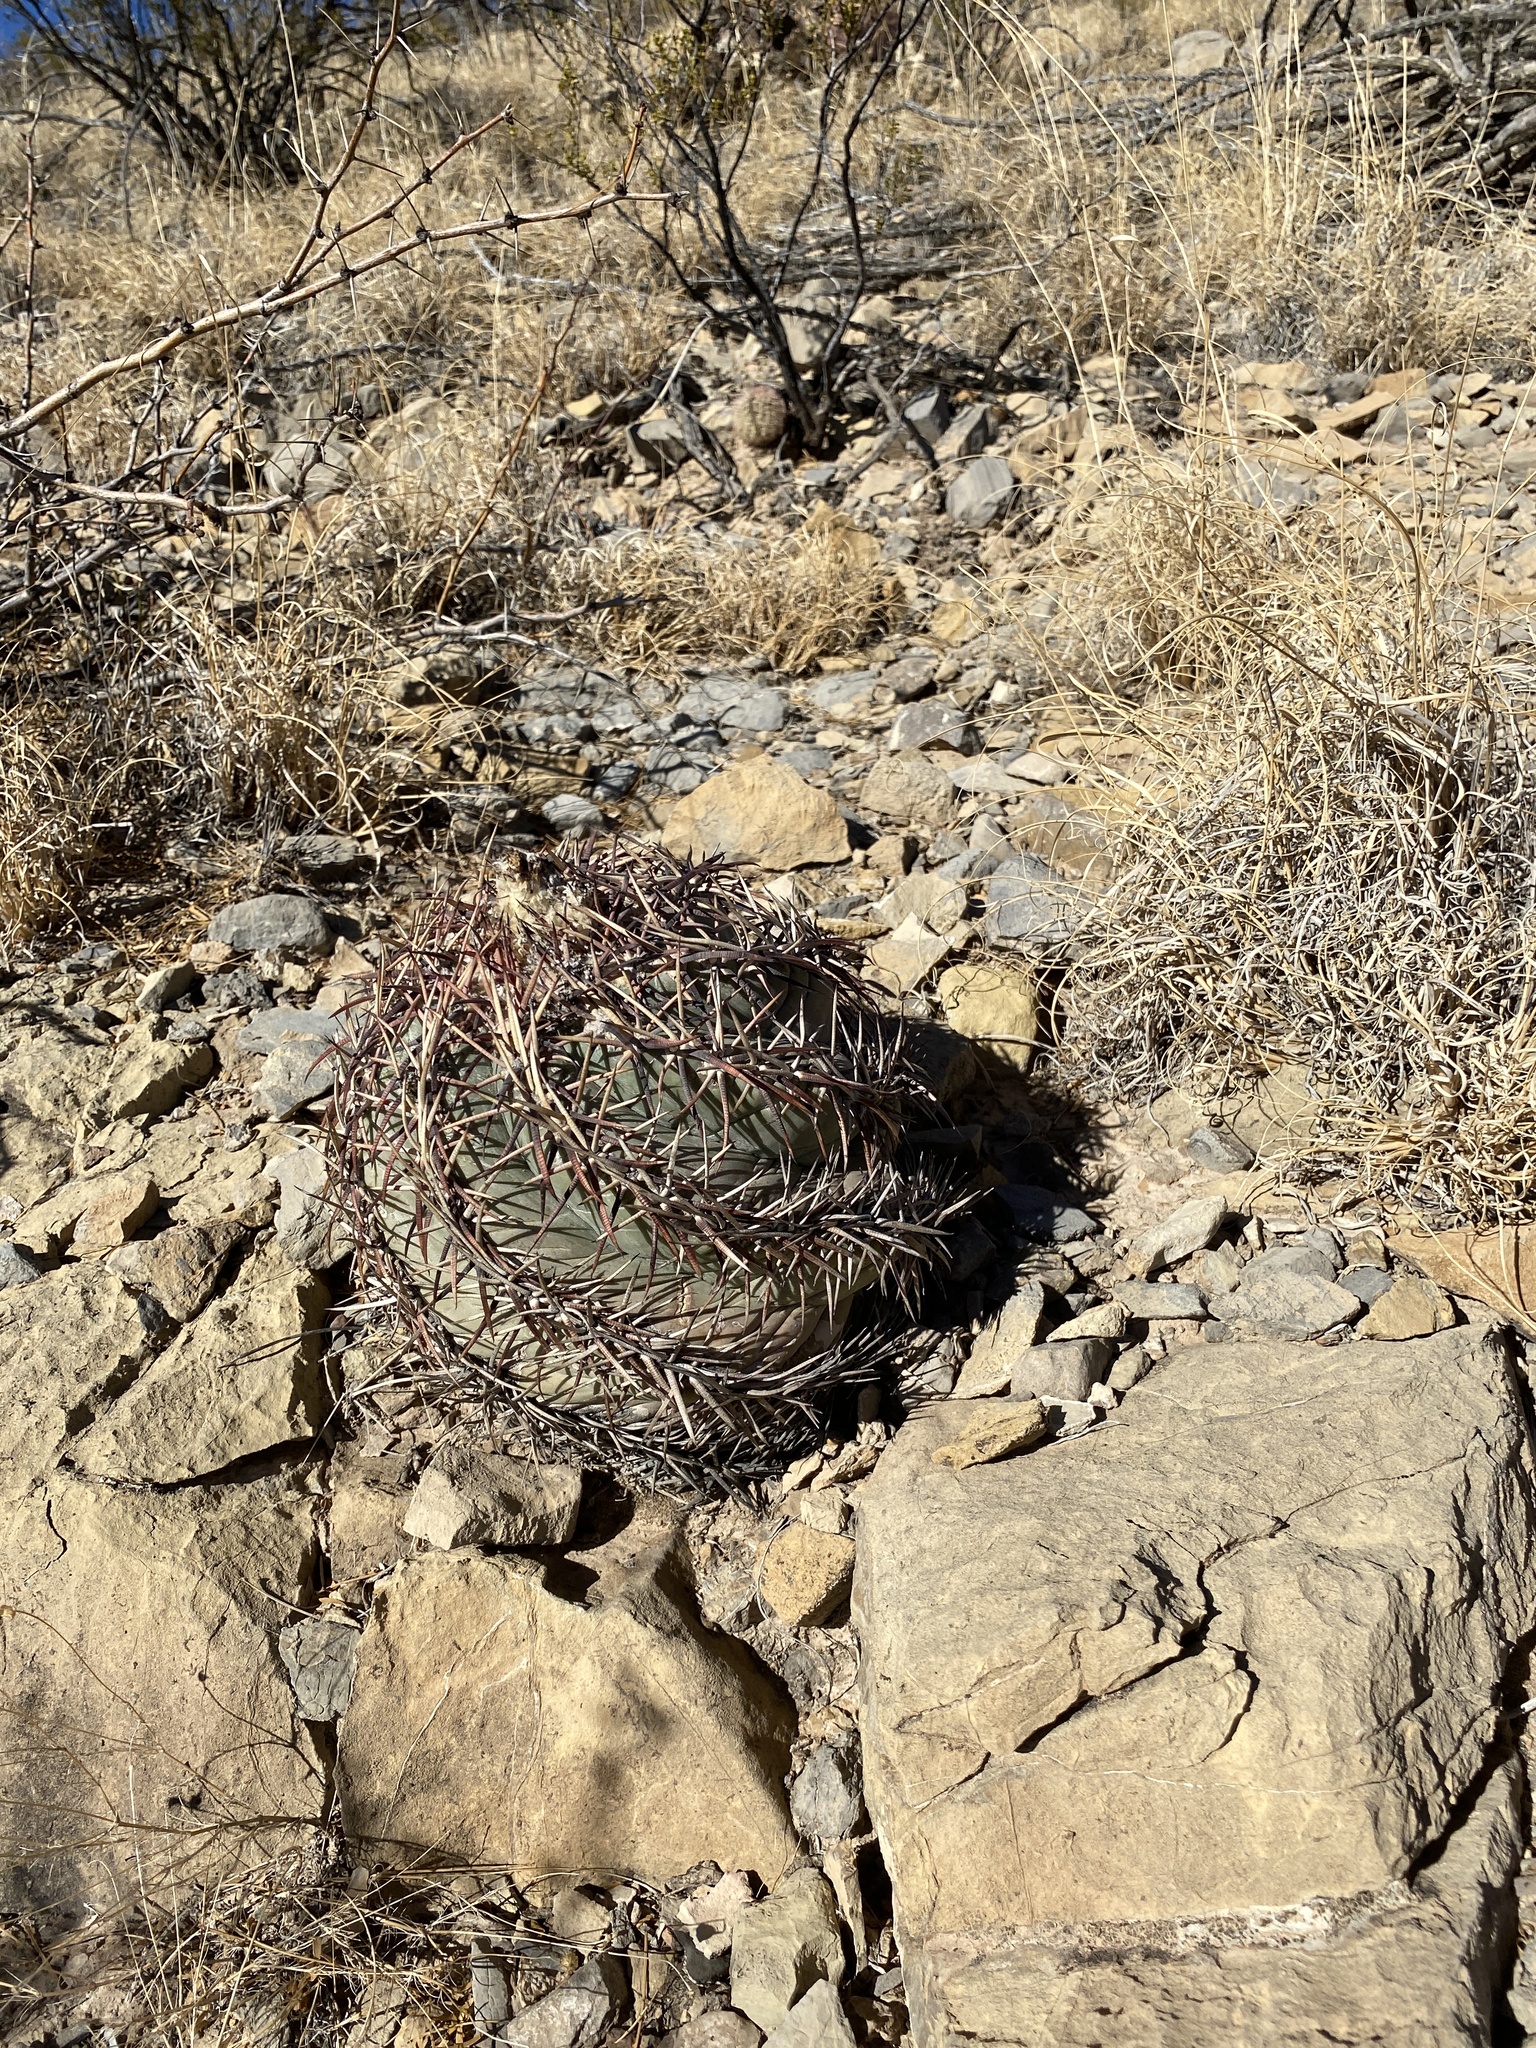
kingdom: Plantae
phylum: Tracheophyta
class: Magnoliopsida
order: Caryophyllales
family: Cactaceae
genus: Echinocactus
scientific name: Echinocactus horizonthalonius
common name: Devilshead
